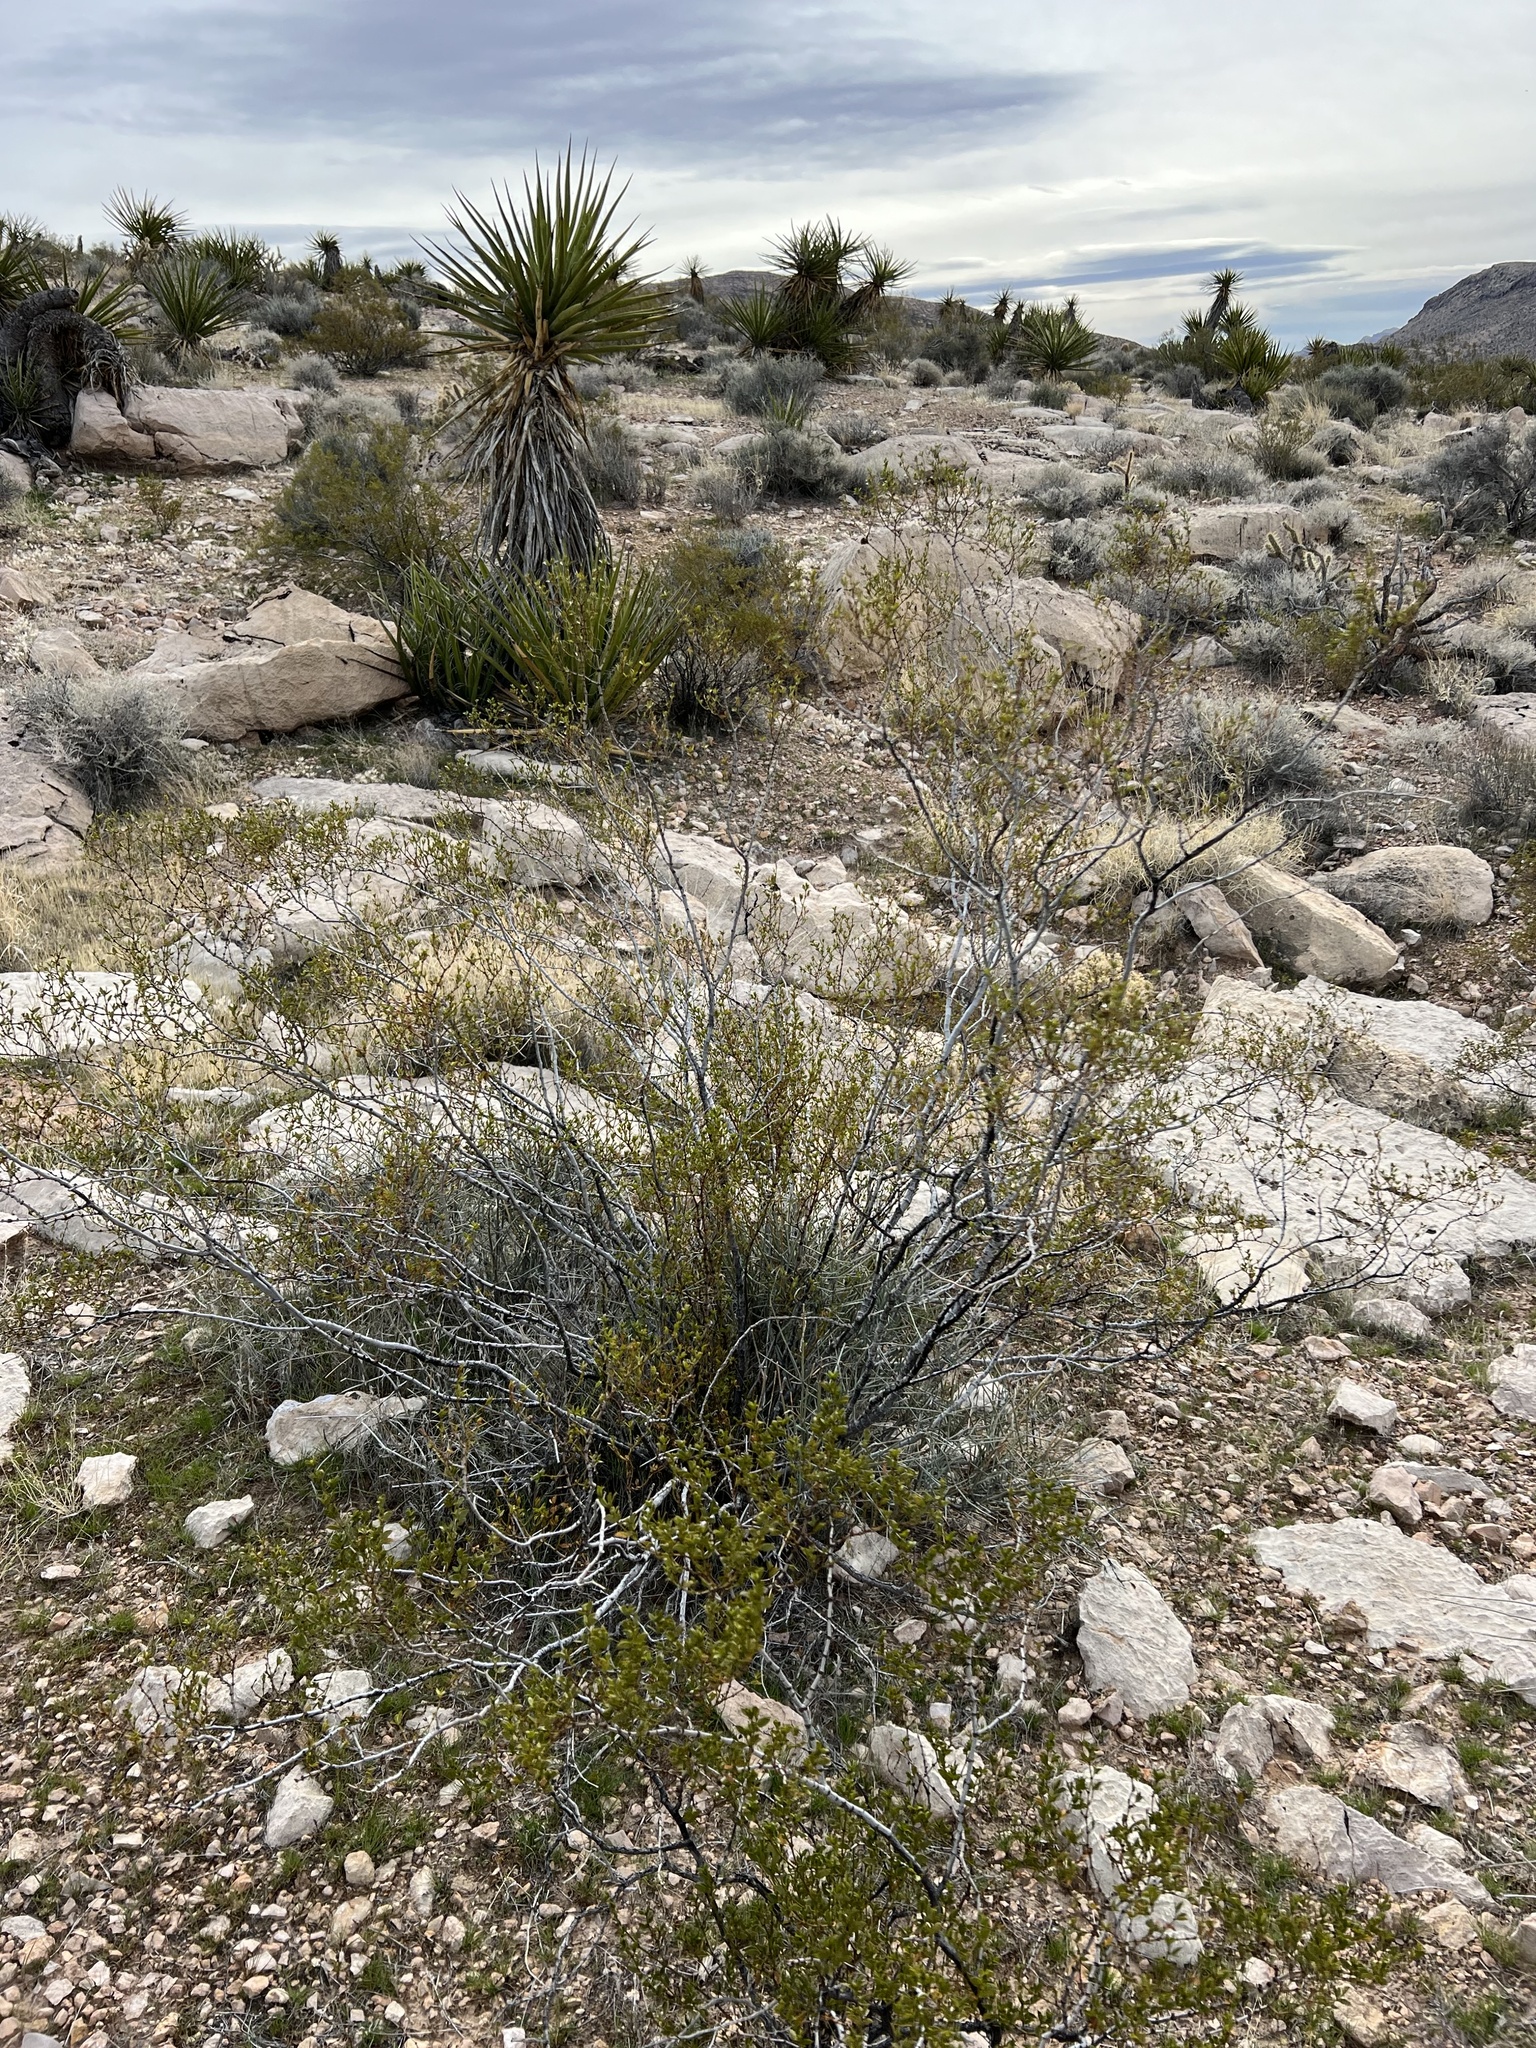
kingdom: Plantae
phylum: Tracheophyta
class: Magnoliopsida
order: Zygophyllales
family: Zygophyllaceae
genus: Larrea
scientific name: Larrea tridentata
